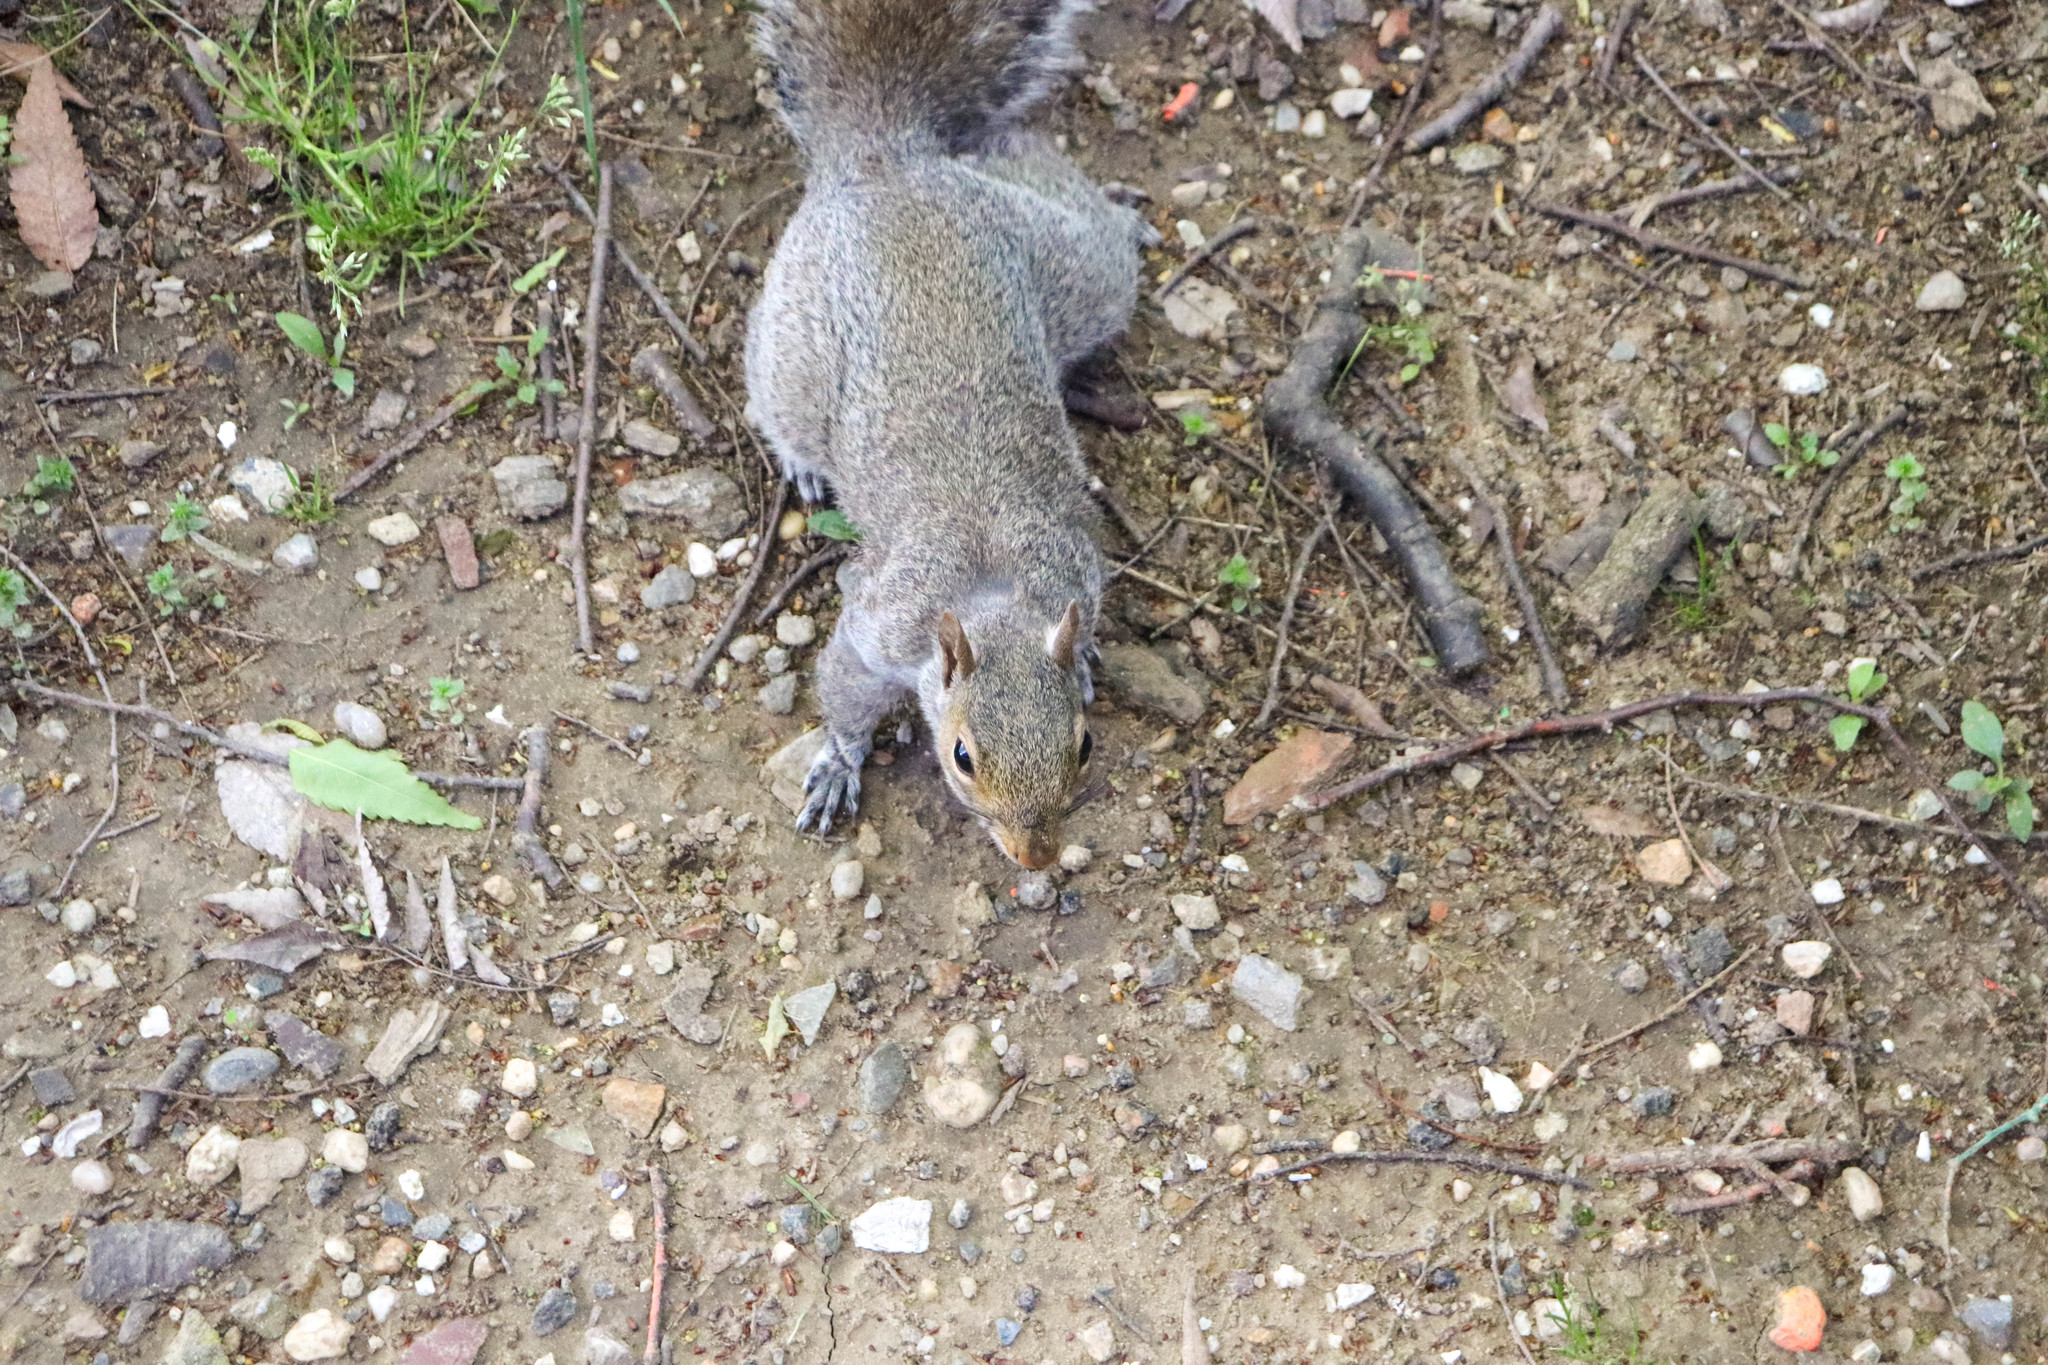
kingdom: Animalia
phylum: Chordata
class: Mammalia
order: Rodentia
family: Sciuridae
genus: Sciurus
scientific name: Sciurus carolinensis
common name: Eastern gray squirrel
